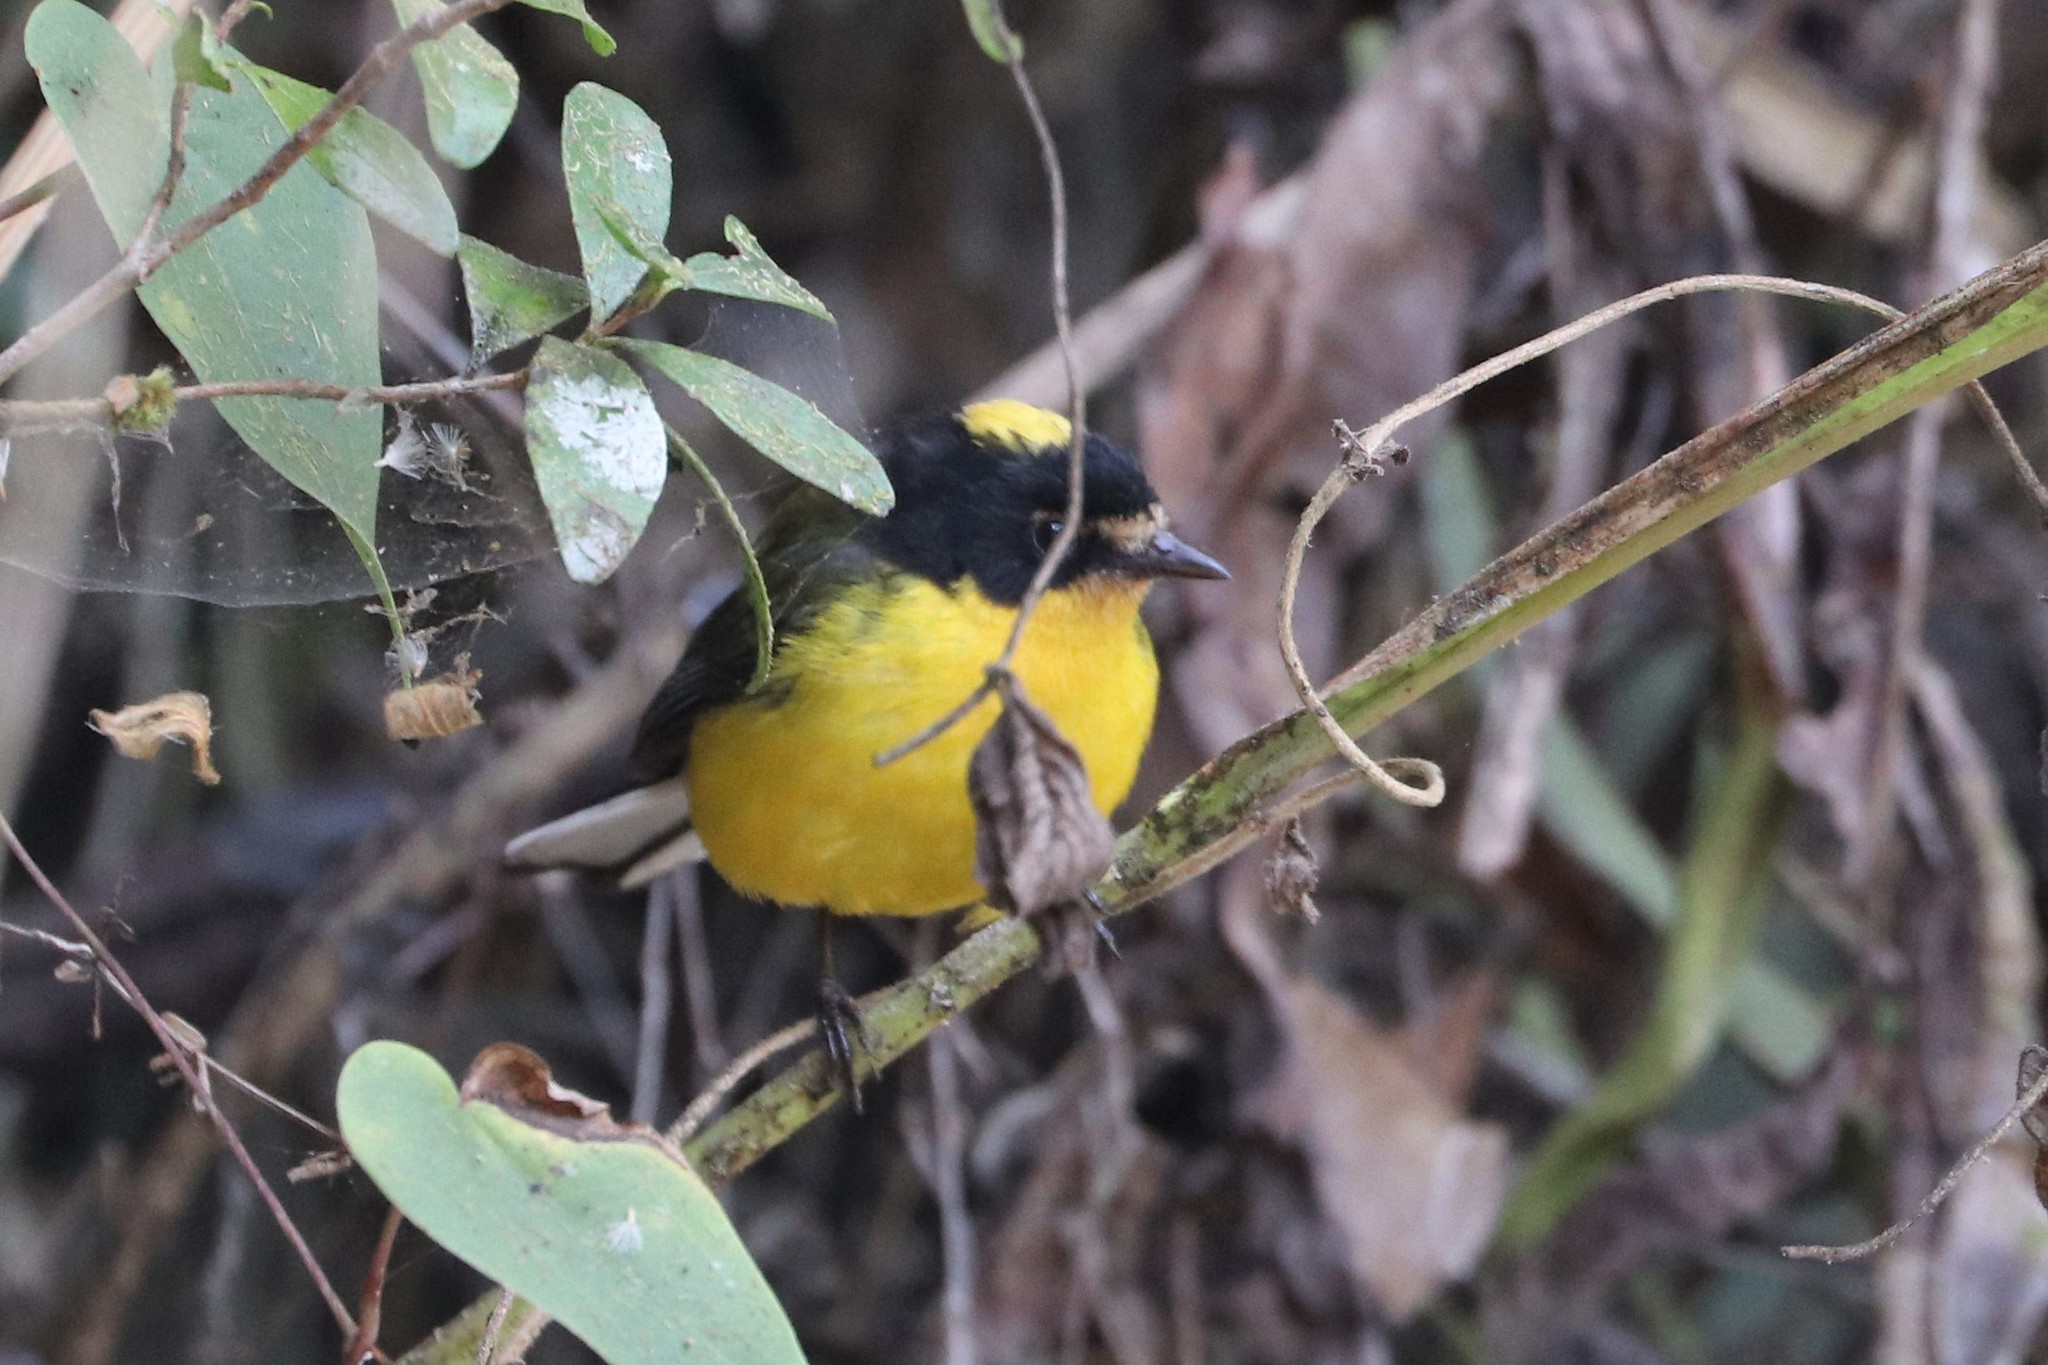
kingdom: Animalia
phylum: Chordata
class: Aves
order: Passeriformes
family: Parulidae
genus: Myioborus
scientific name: Myioborus flavivertex
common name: Yellow-crowned whitestart
